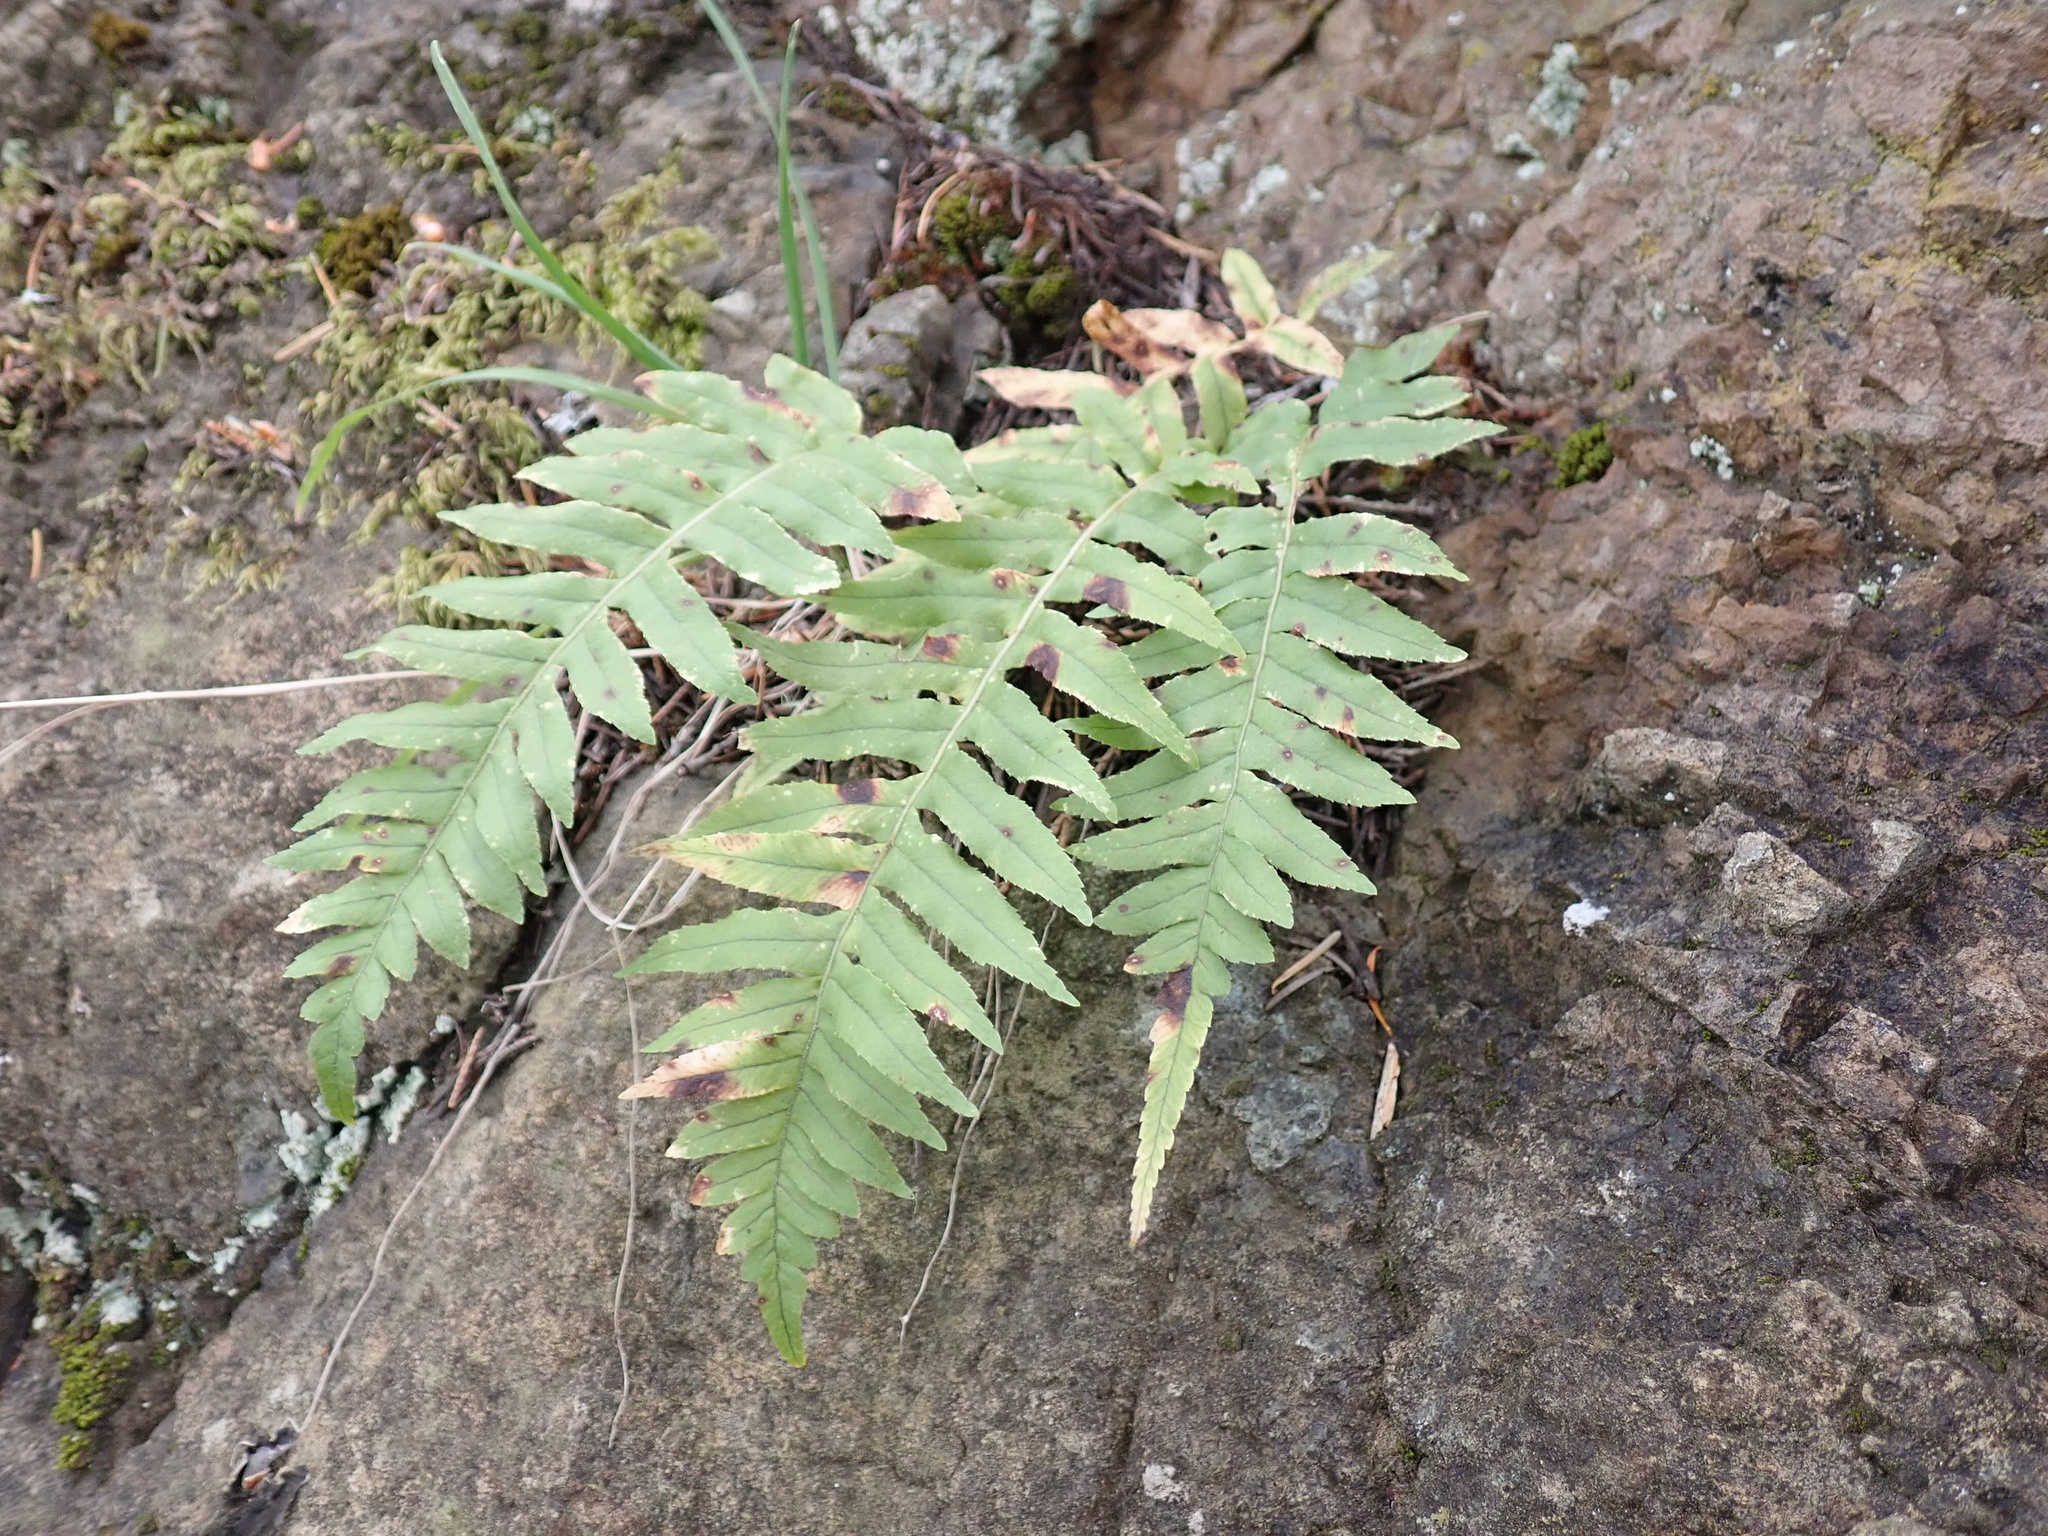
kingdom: Plantae
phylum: Tracheophyta
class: Polypodiopsida
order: Polypodiales
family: Polypodiaceae
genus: Polypodium
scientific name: Polypodium glycyrrhiza
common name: Licorice fern
